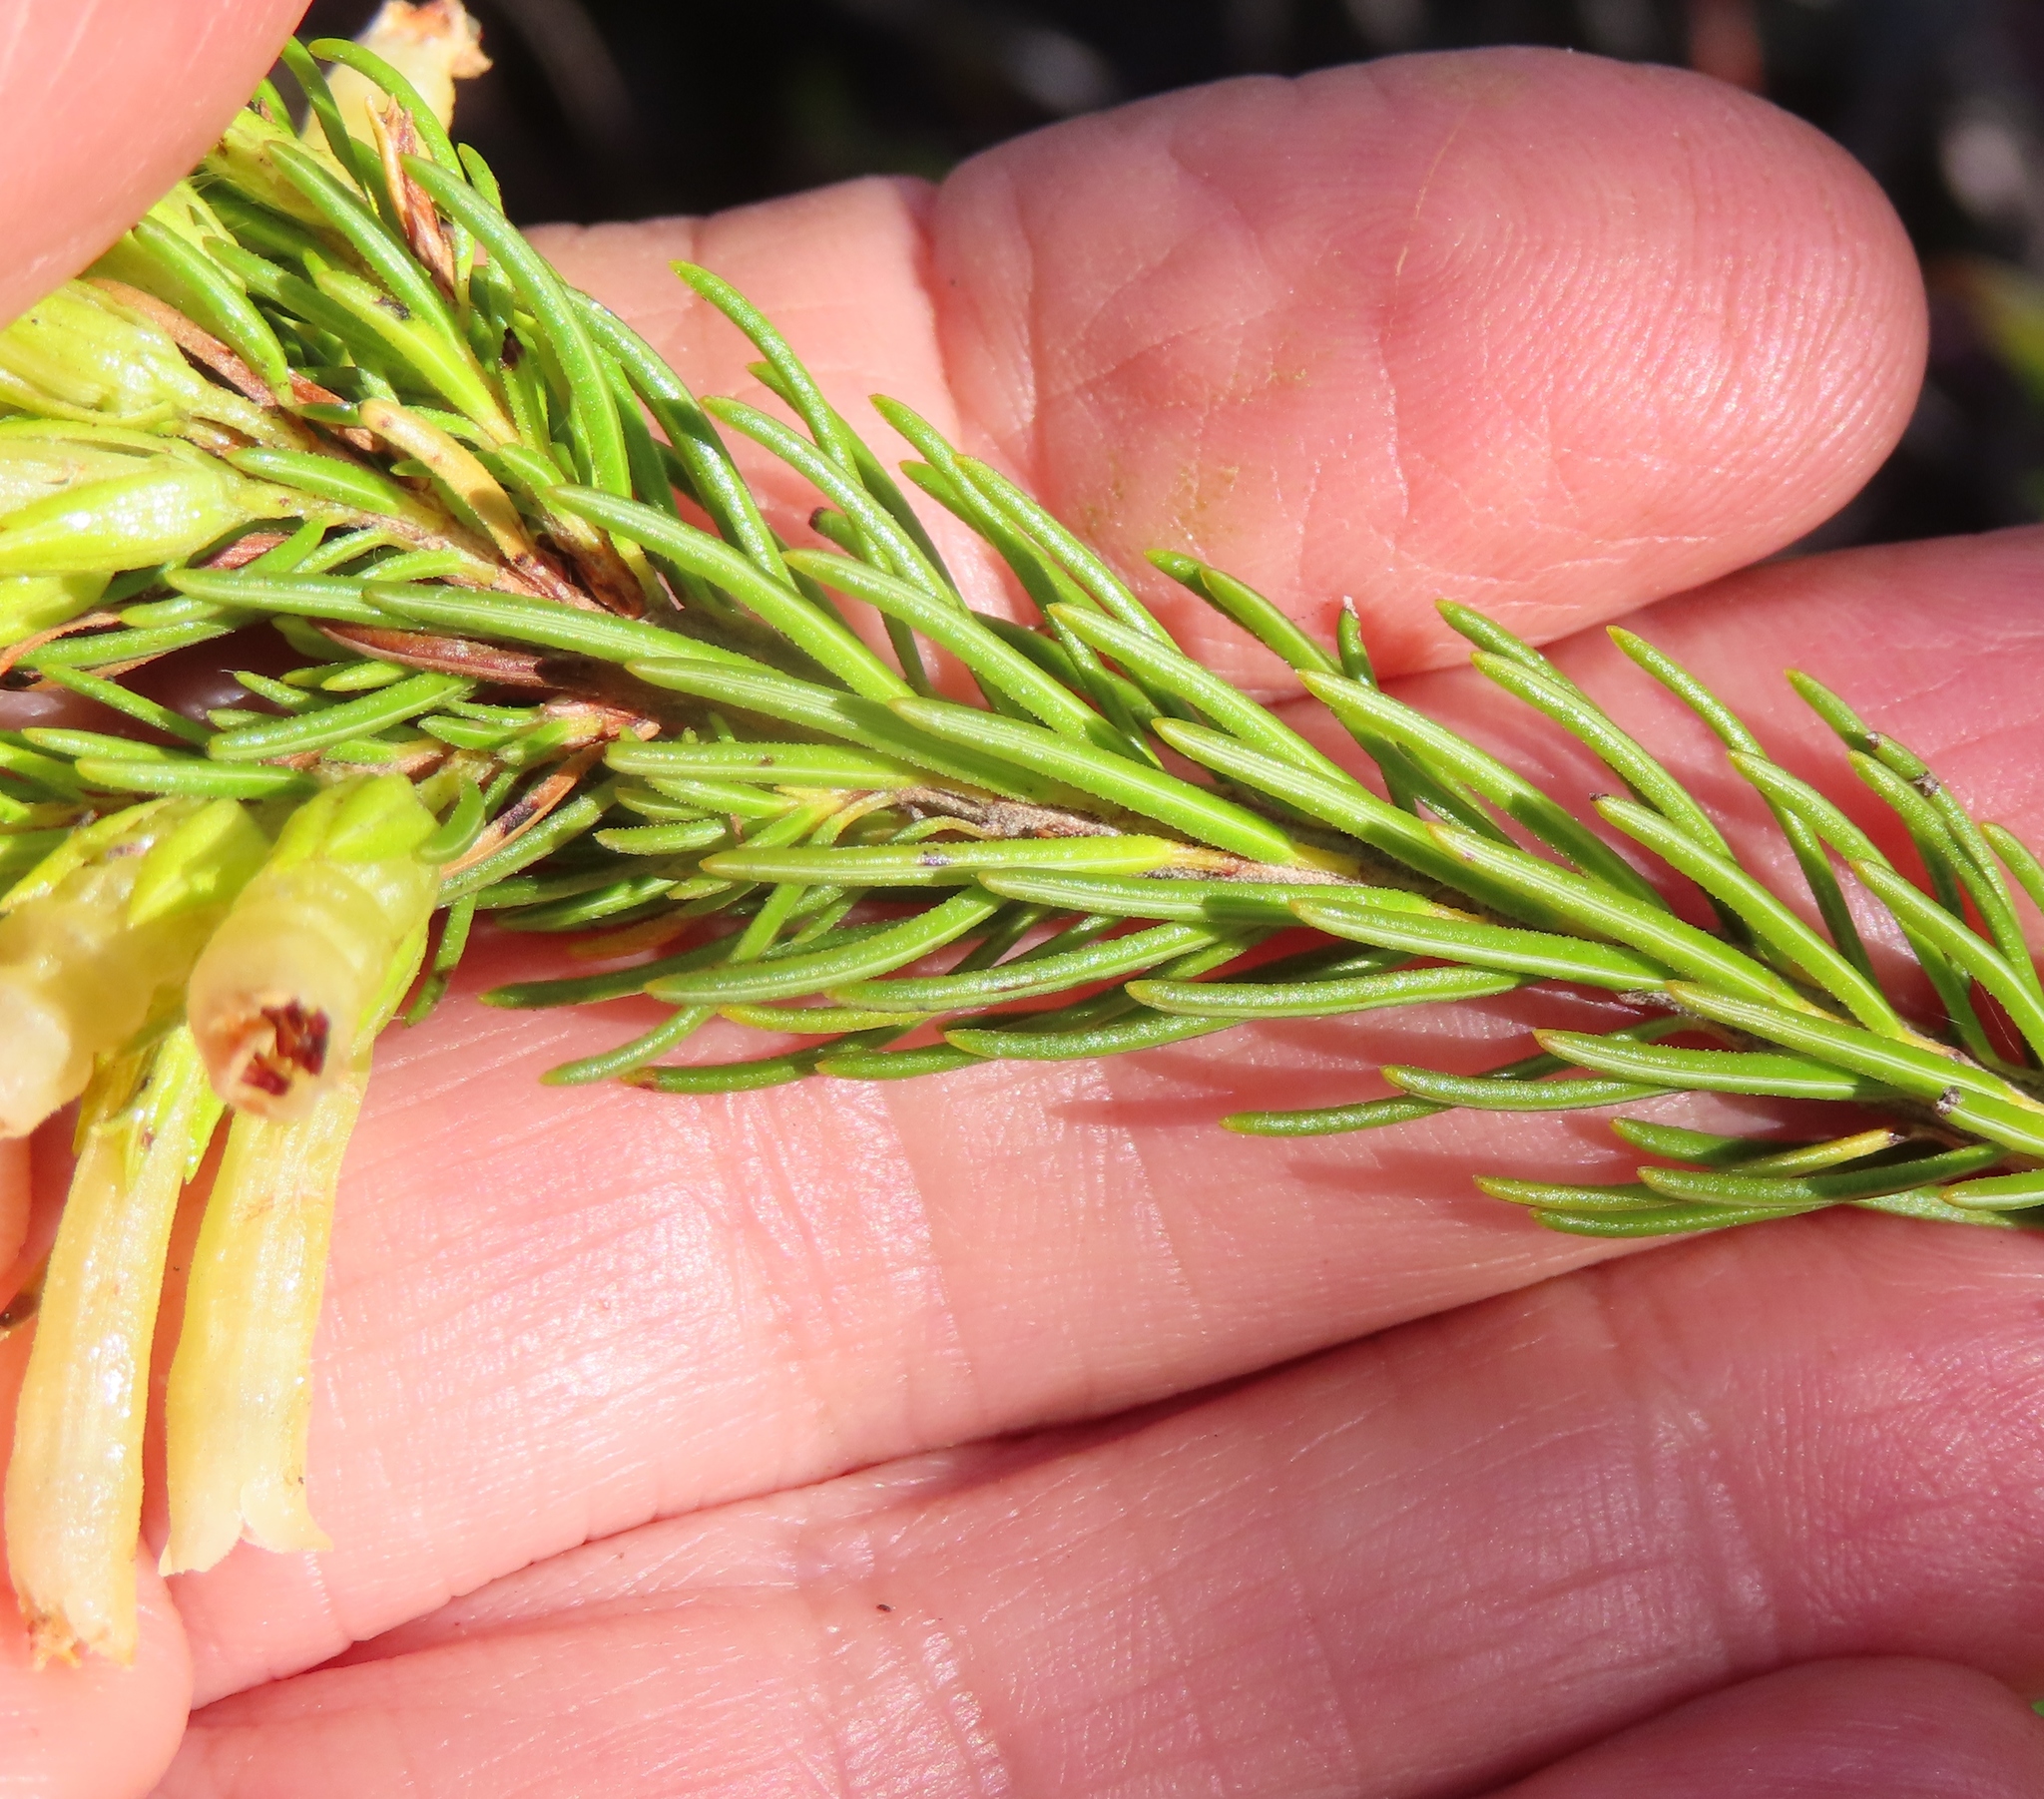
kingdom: Plantae
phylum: Tracheophyta
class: Magnoliopsida
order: Ericales
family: Ericaceae
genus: Erica
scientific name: Erica viscaria
